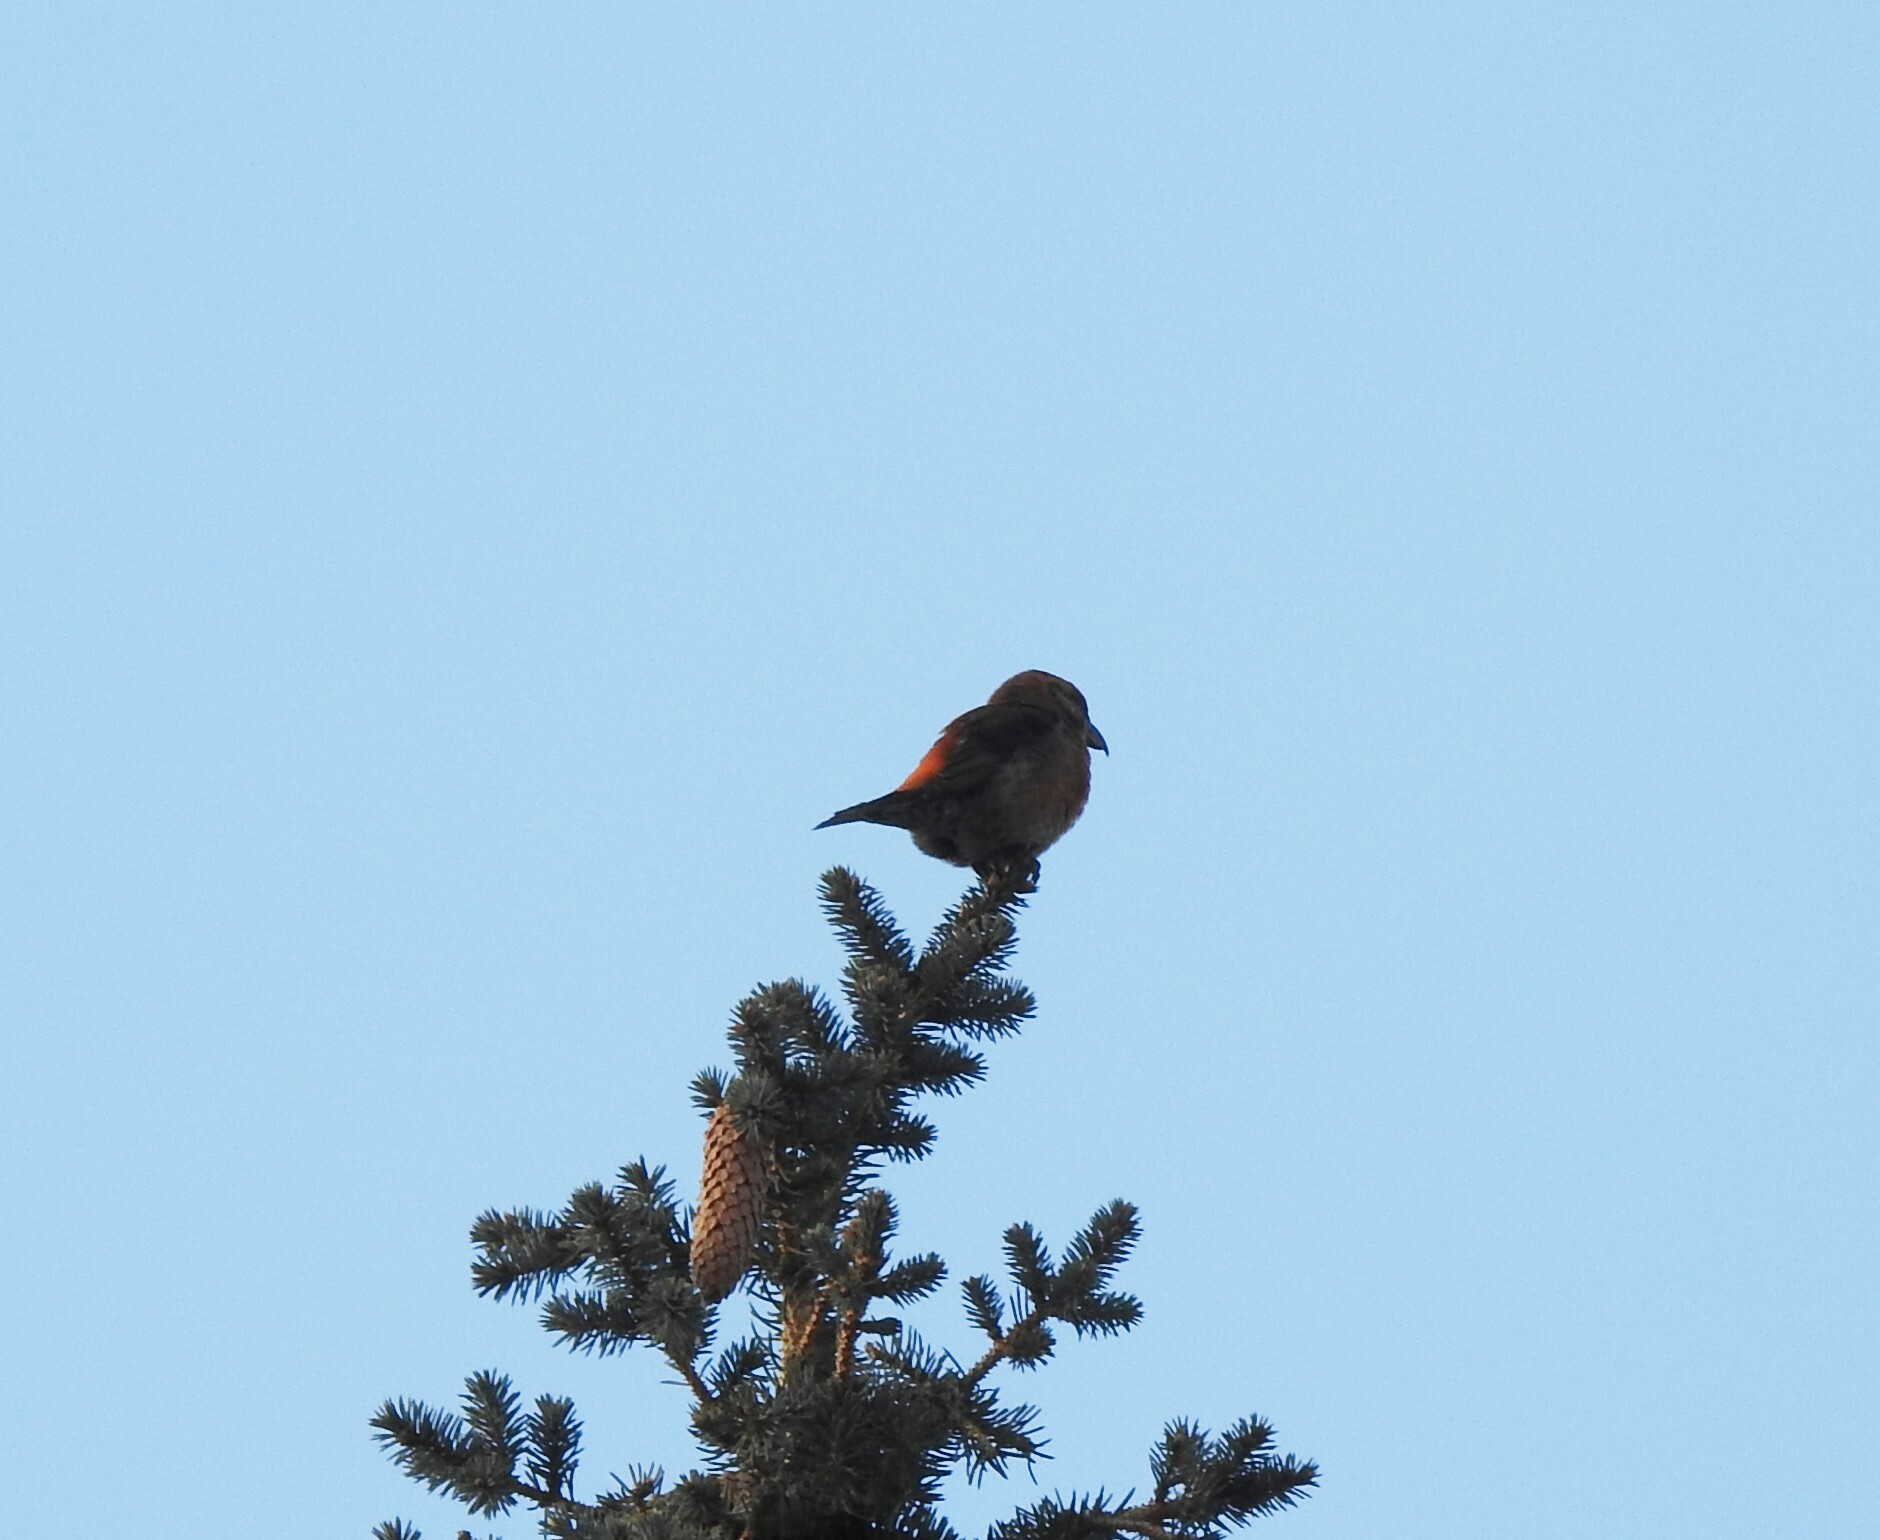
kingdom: Animalia
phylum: Chordata
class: Aves
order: Passeriformes
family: Fringillidae
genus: Loxia
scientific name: Loxia curvirostra
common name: Red crossbill
